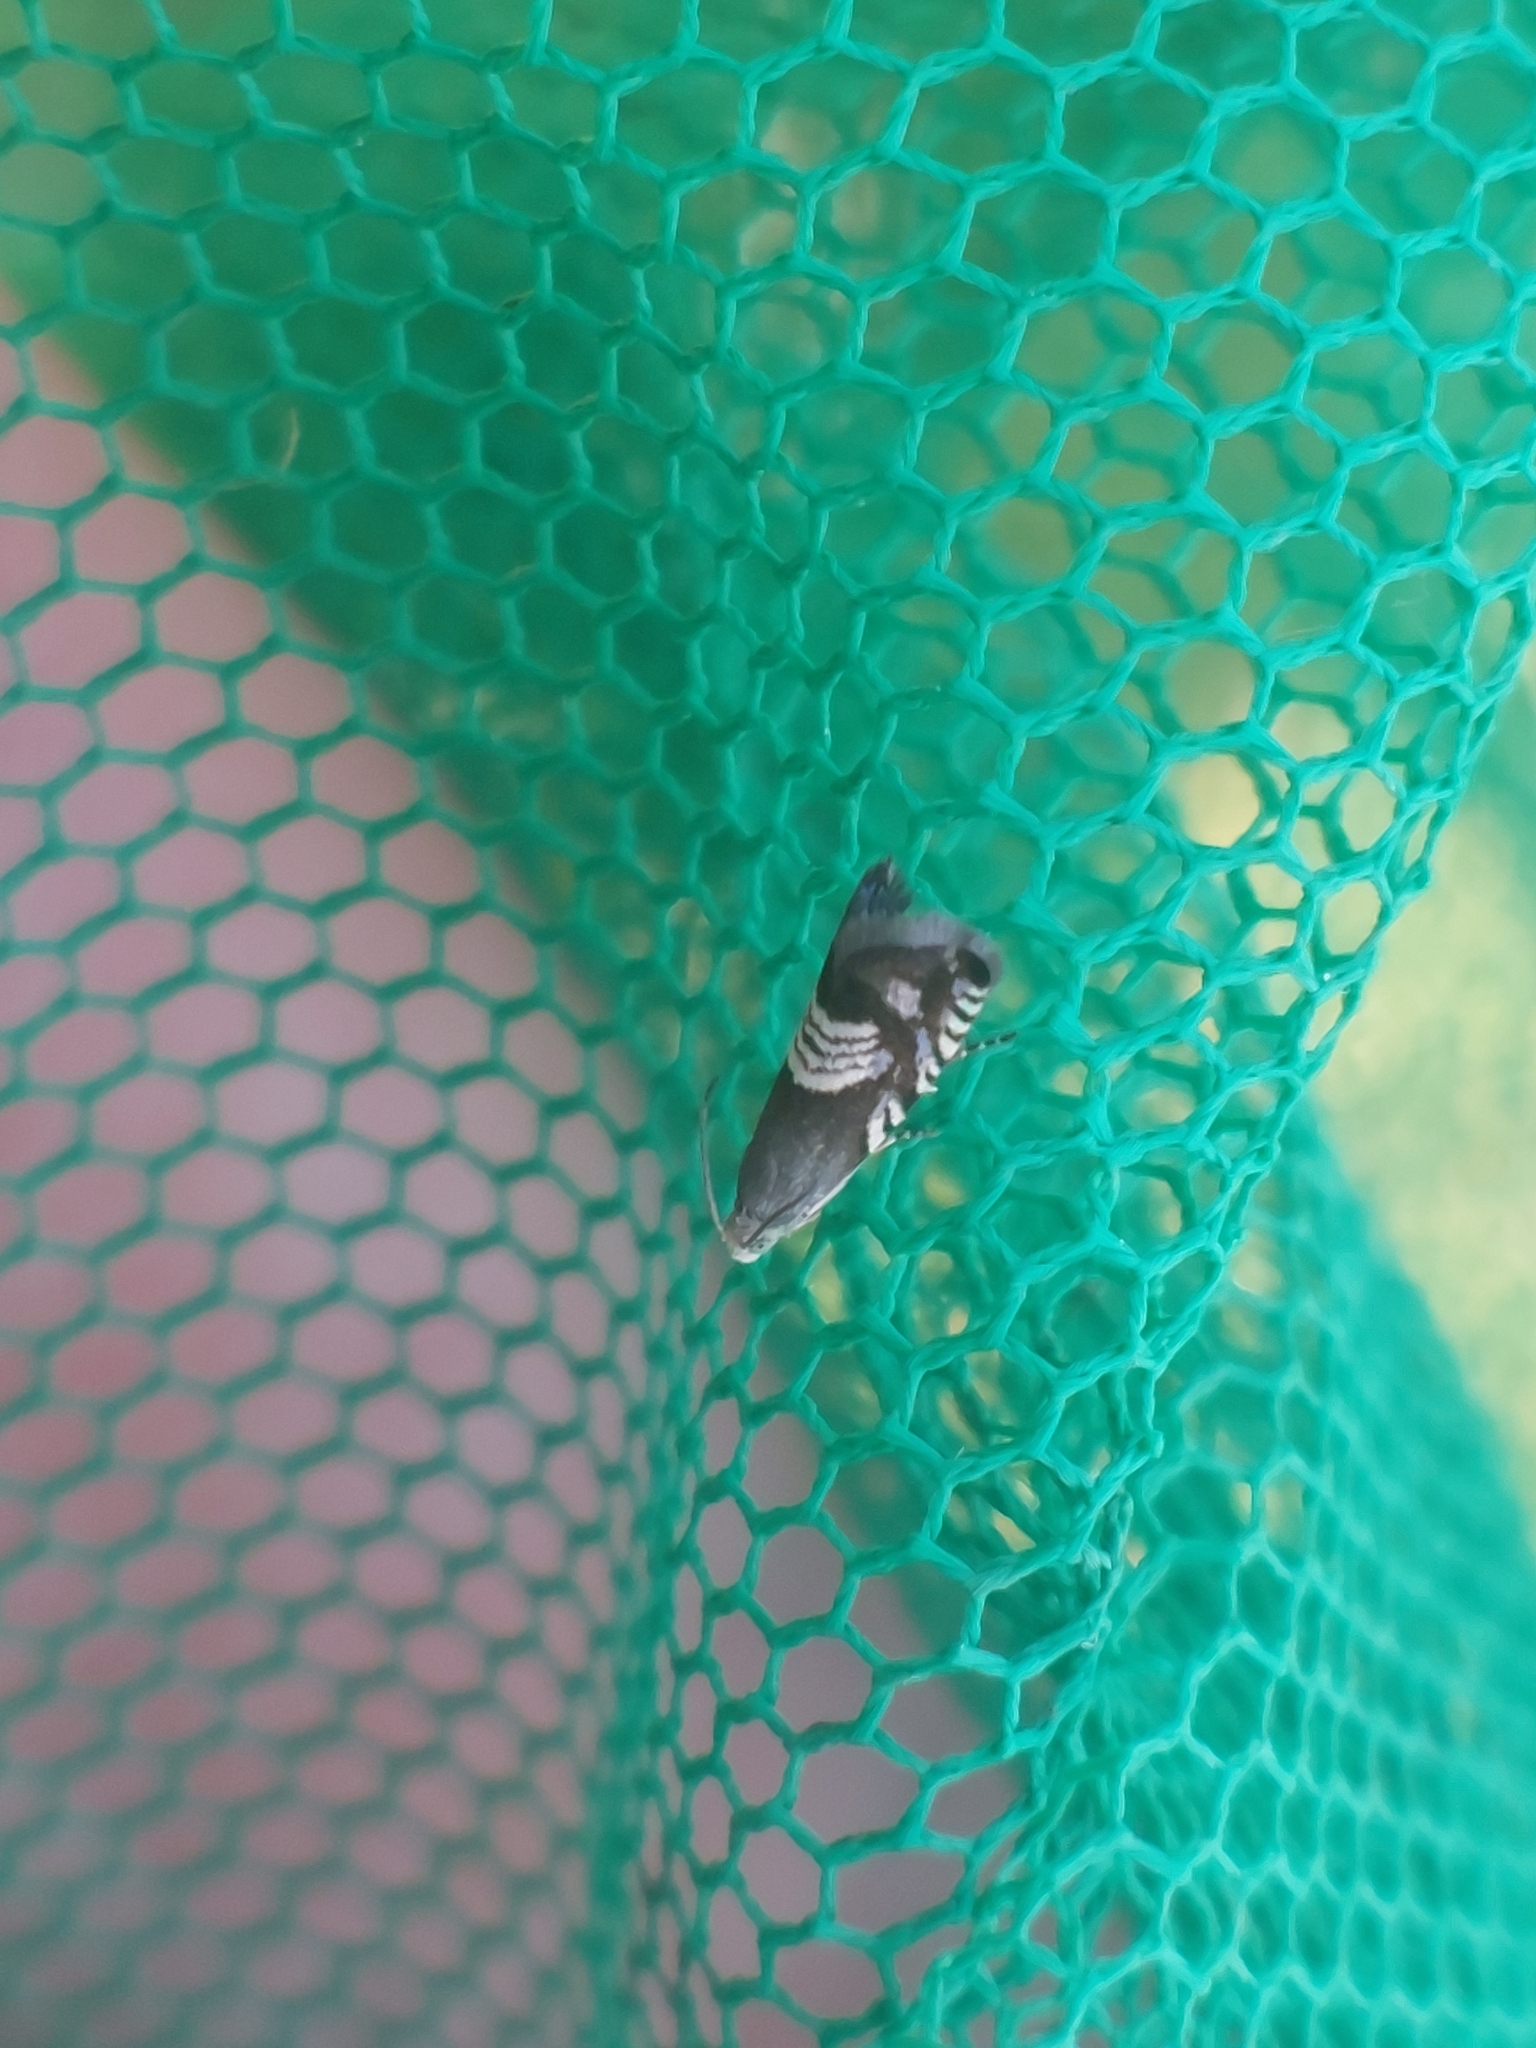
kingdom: Animalia
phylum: Arthropoda
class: Insecta
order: Lepidoptera
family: Tortricidae
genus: Grapholita
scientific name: Grapholita compositella
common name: Triple-stripe piercer
